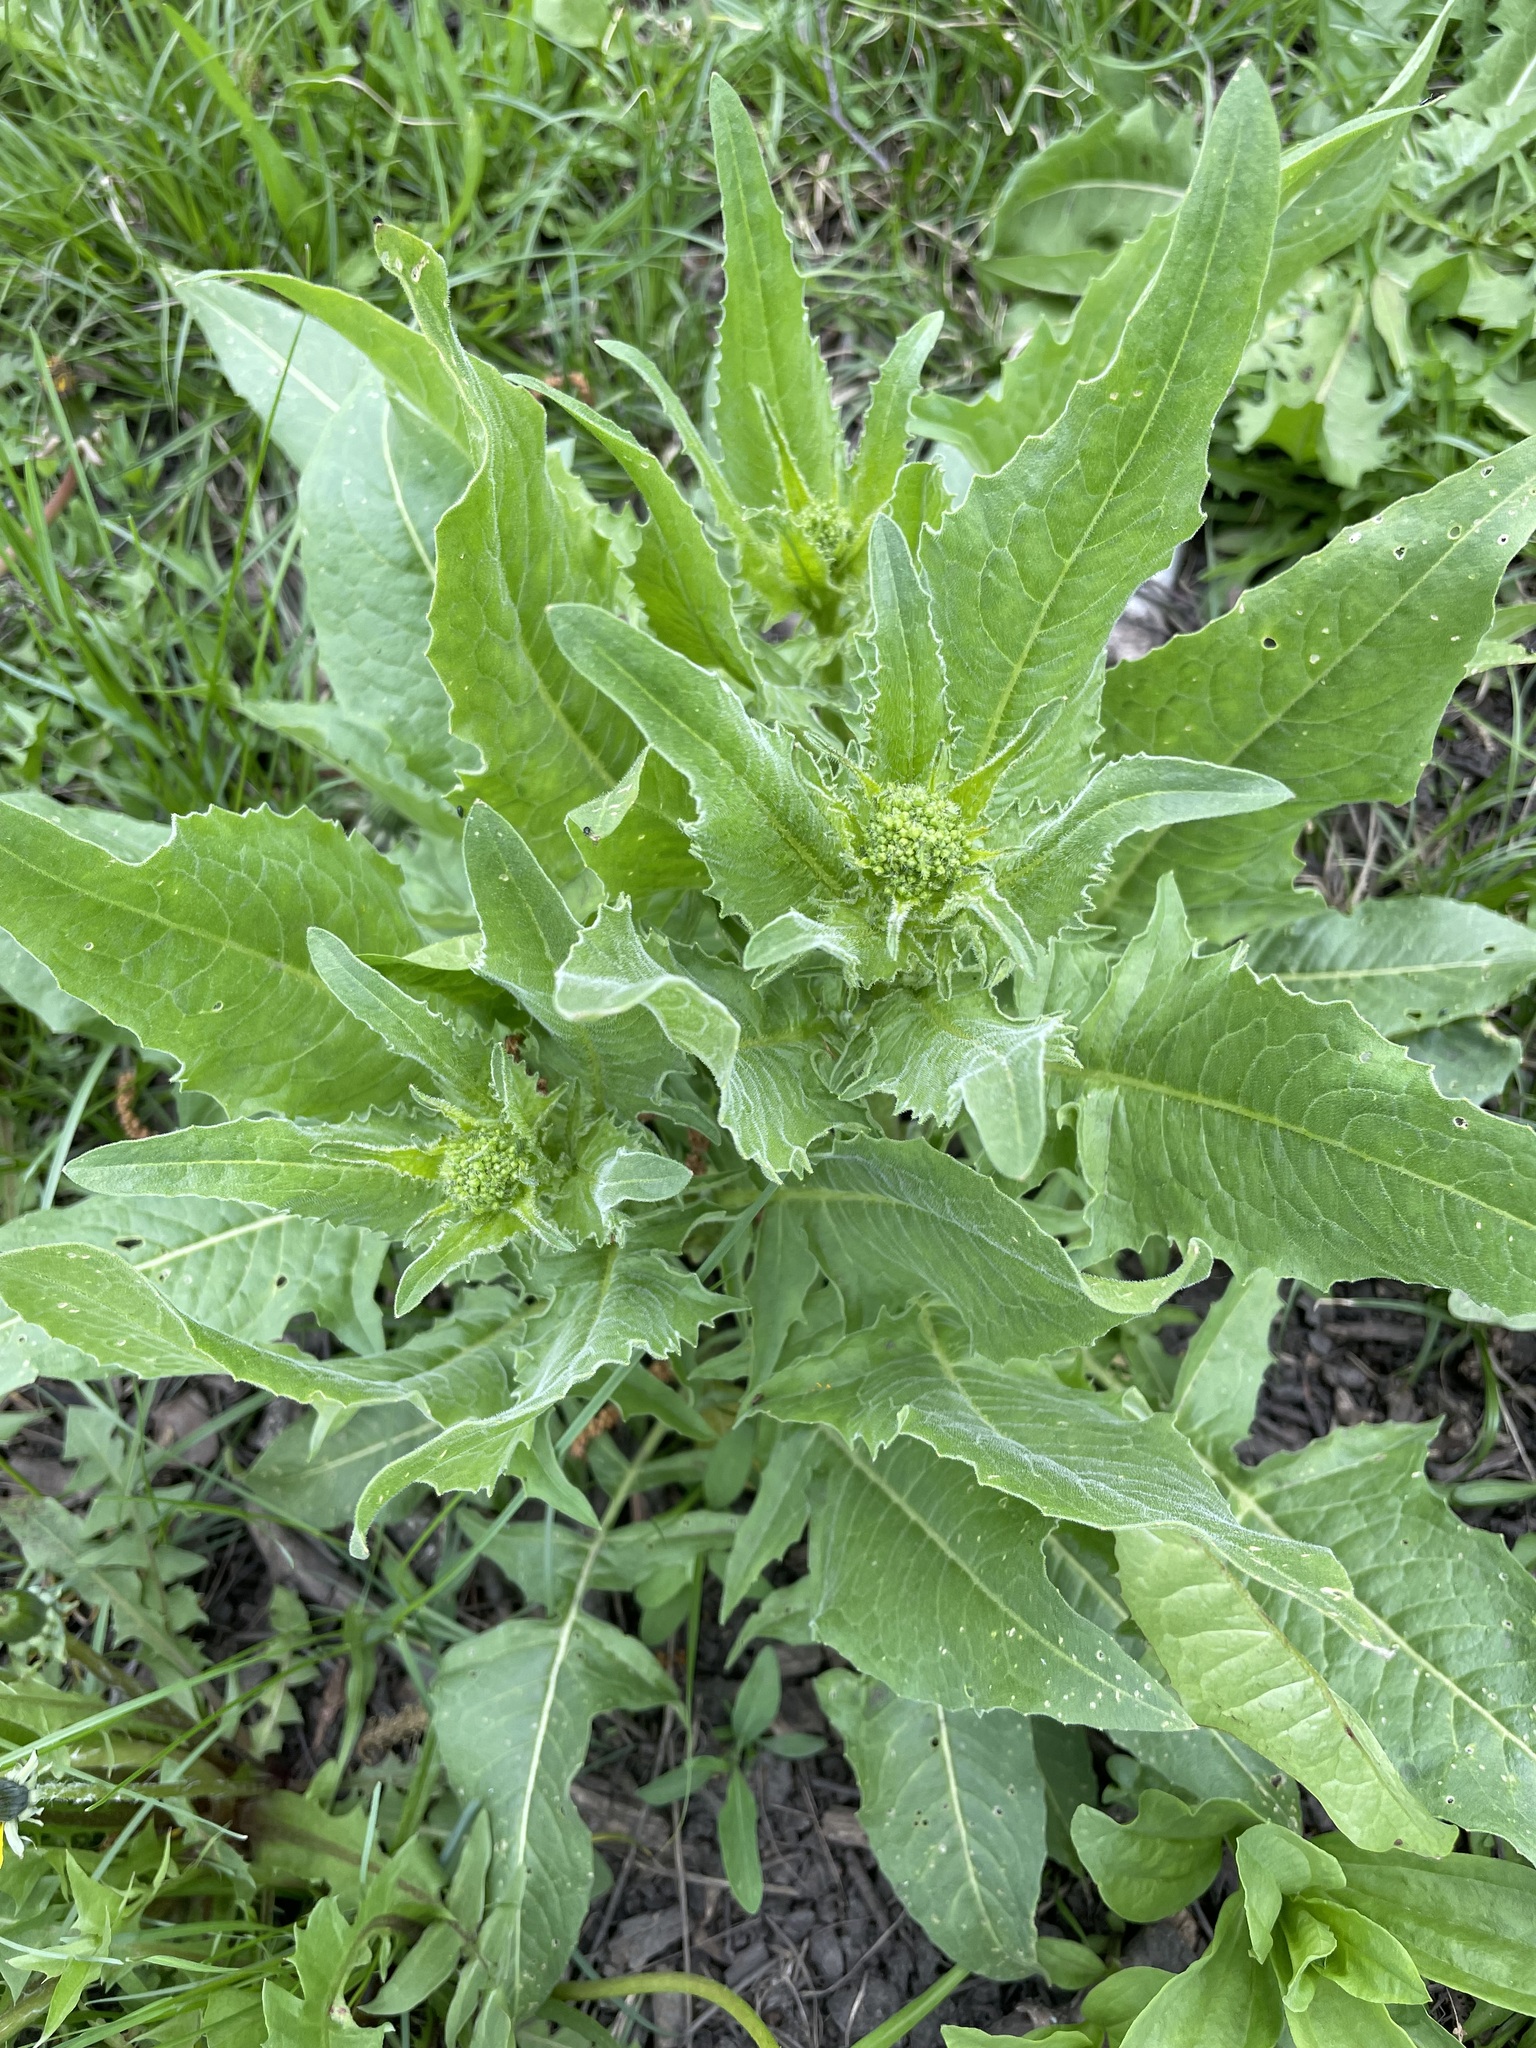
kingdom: Plantae
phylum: Tracheophyta
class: Magnoliopsida
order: Brassicales
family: Brassicaceae
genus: Bunias
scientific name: Bunias orientalis
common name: Warty-cabbage
